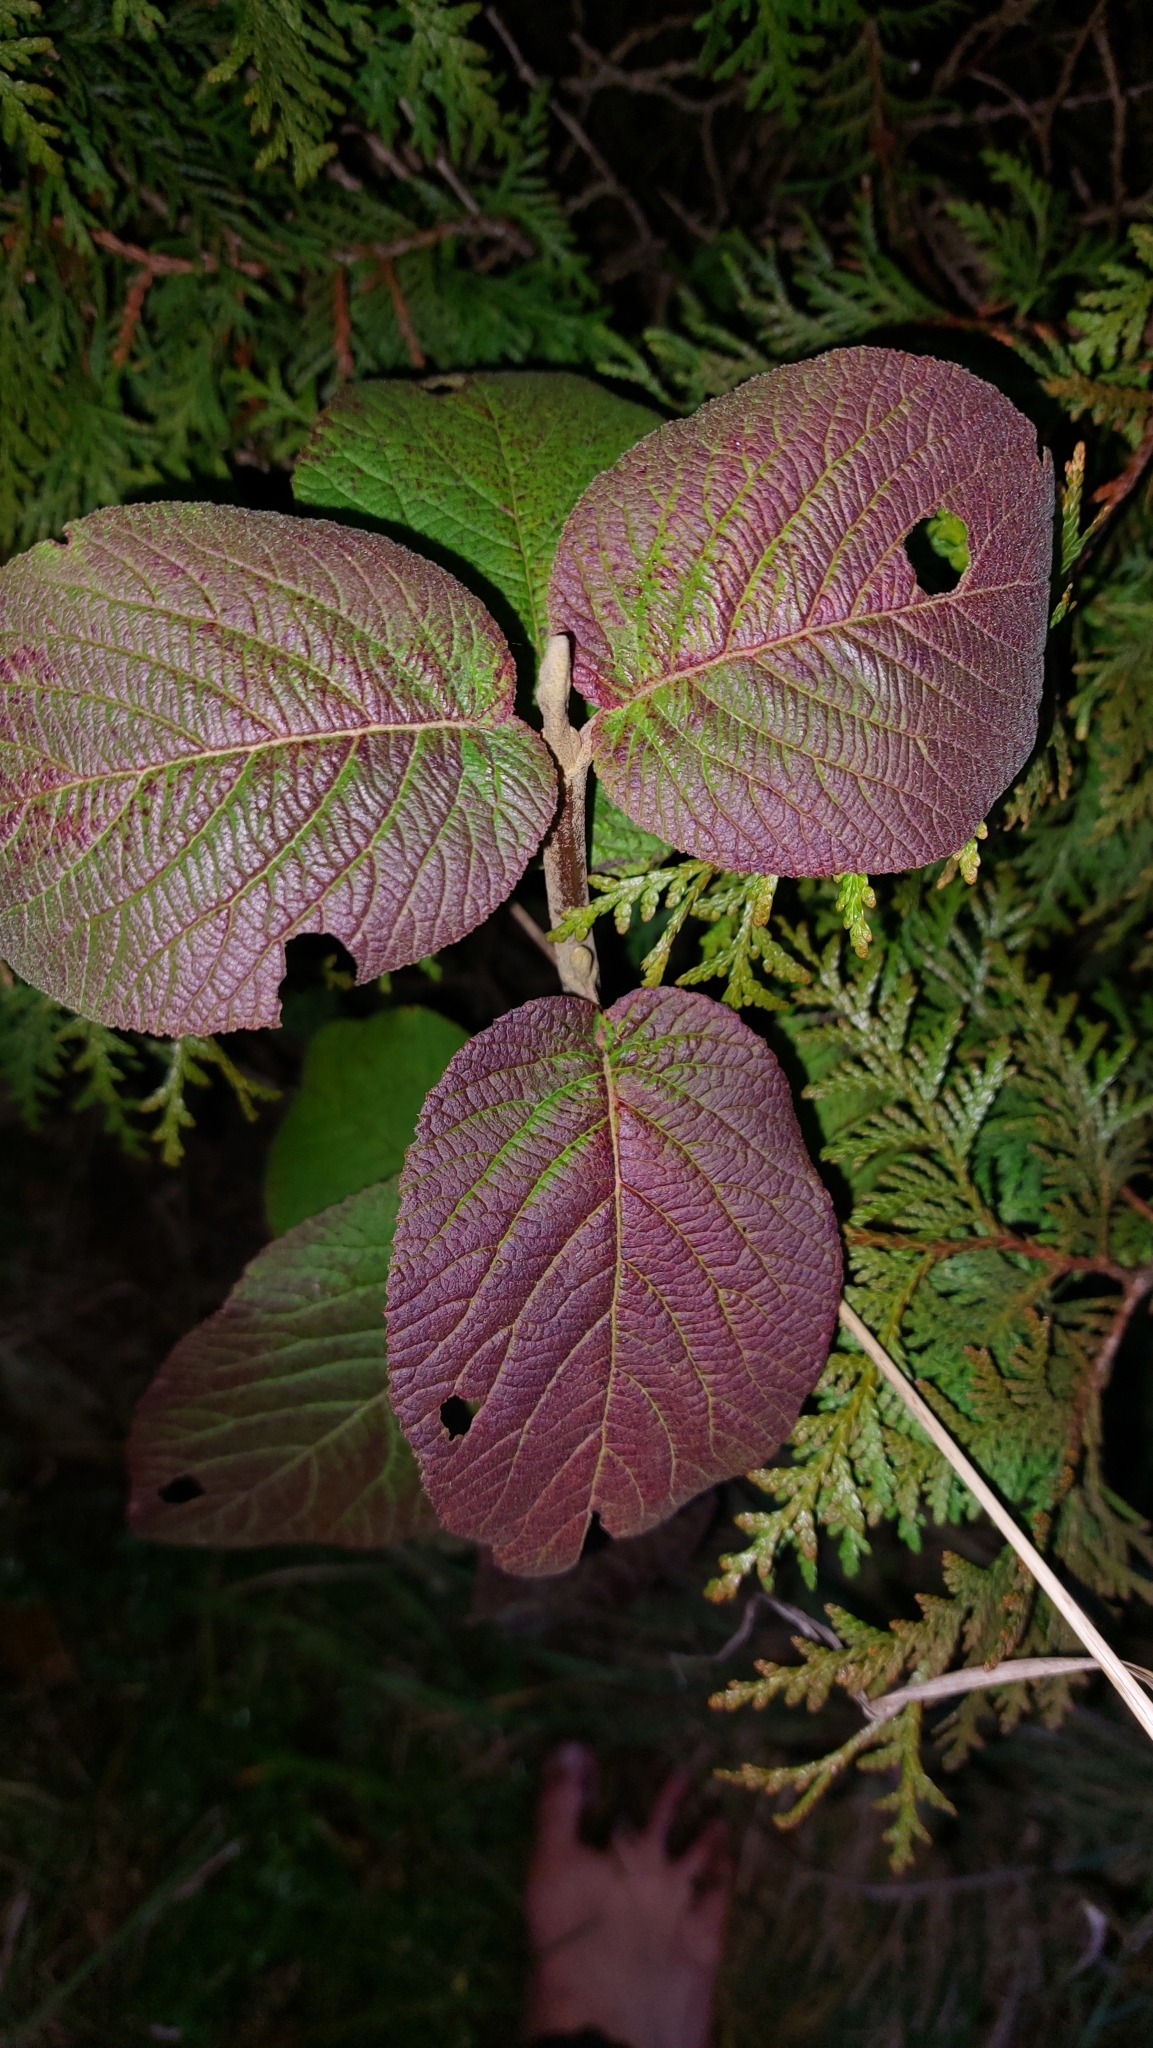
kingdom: Plantae
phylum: Tracheophyta
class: Magnoliopsida
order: Dipsacales
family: Viburnaceae
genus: Viburnum
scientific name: Viburnum lantana
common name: Wayfaring tree
